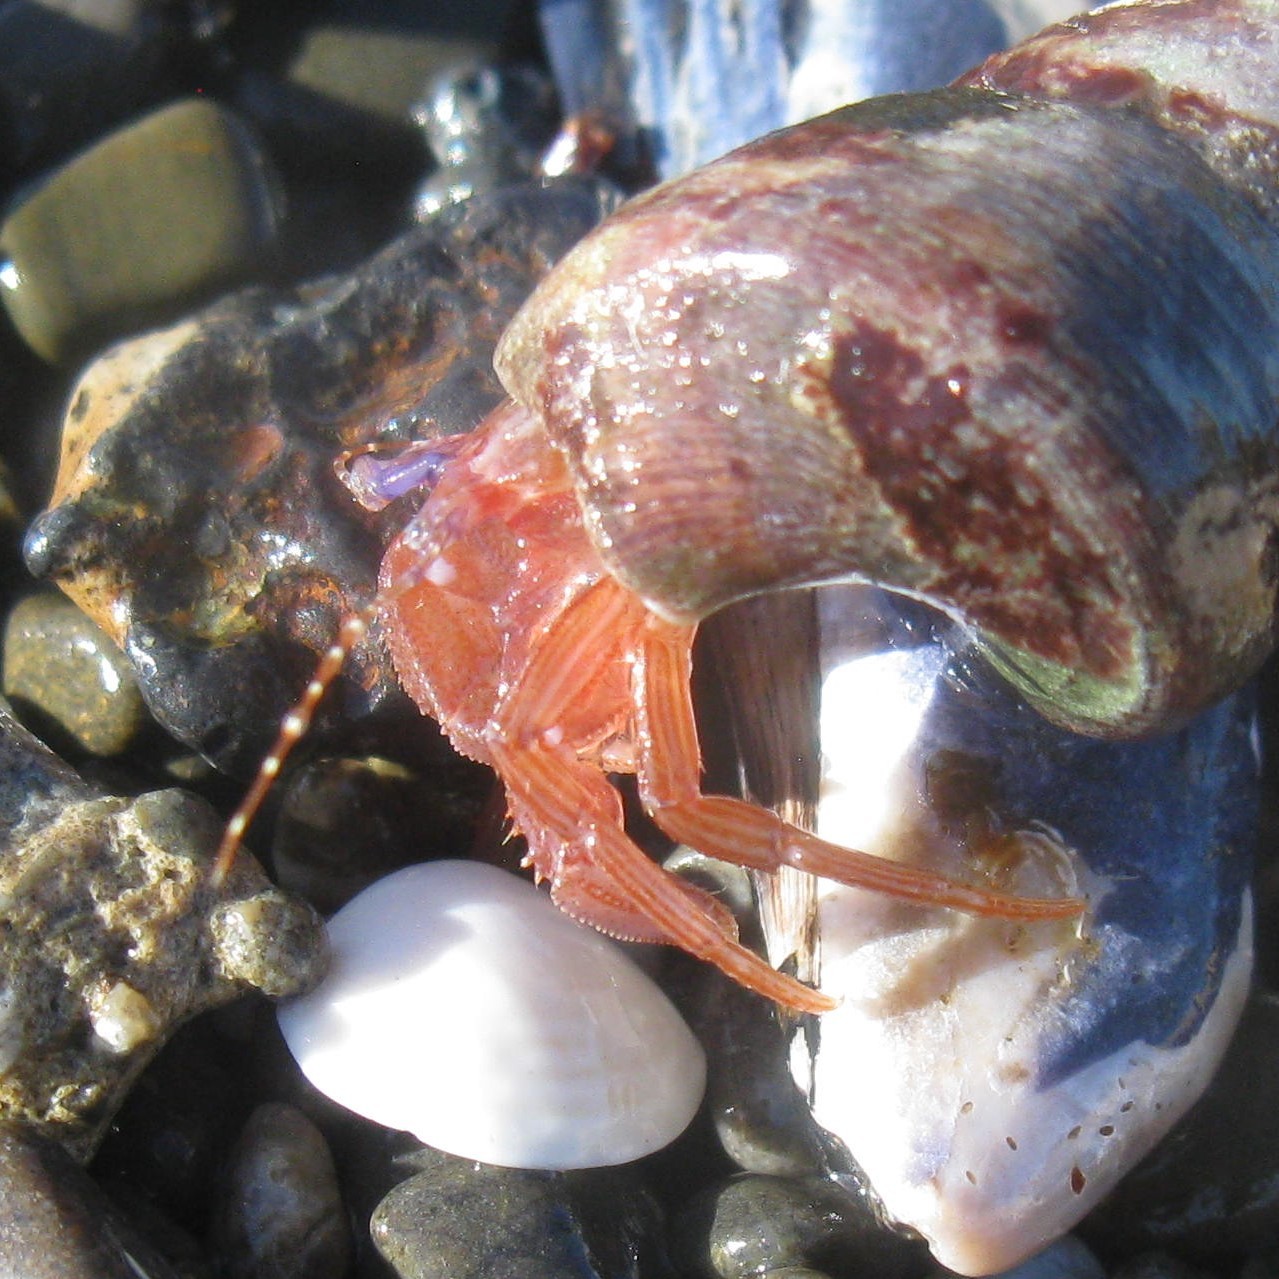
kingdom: Animalia
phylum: Arthropoda
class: Malacostraca
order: Decapoda
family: Paguridae
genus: Lophopagurus
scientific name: Lophopagurus thompsoni
